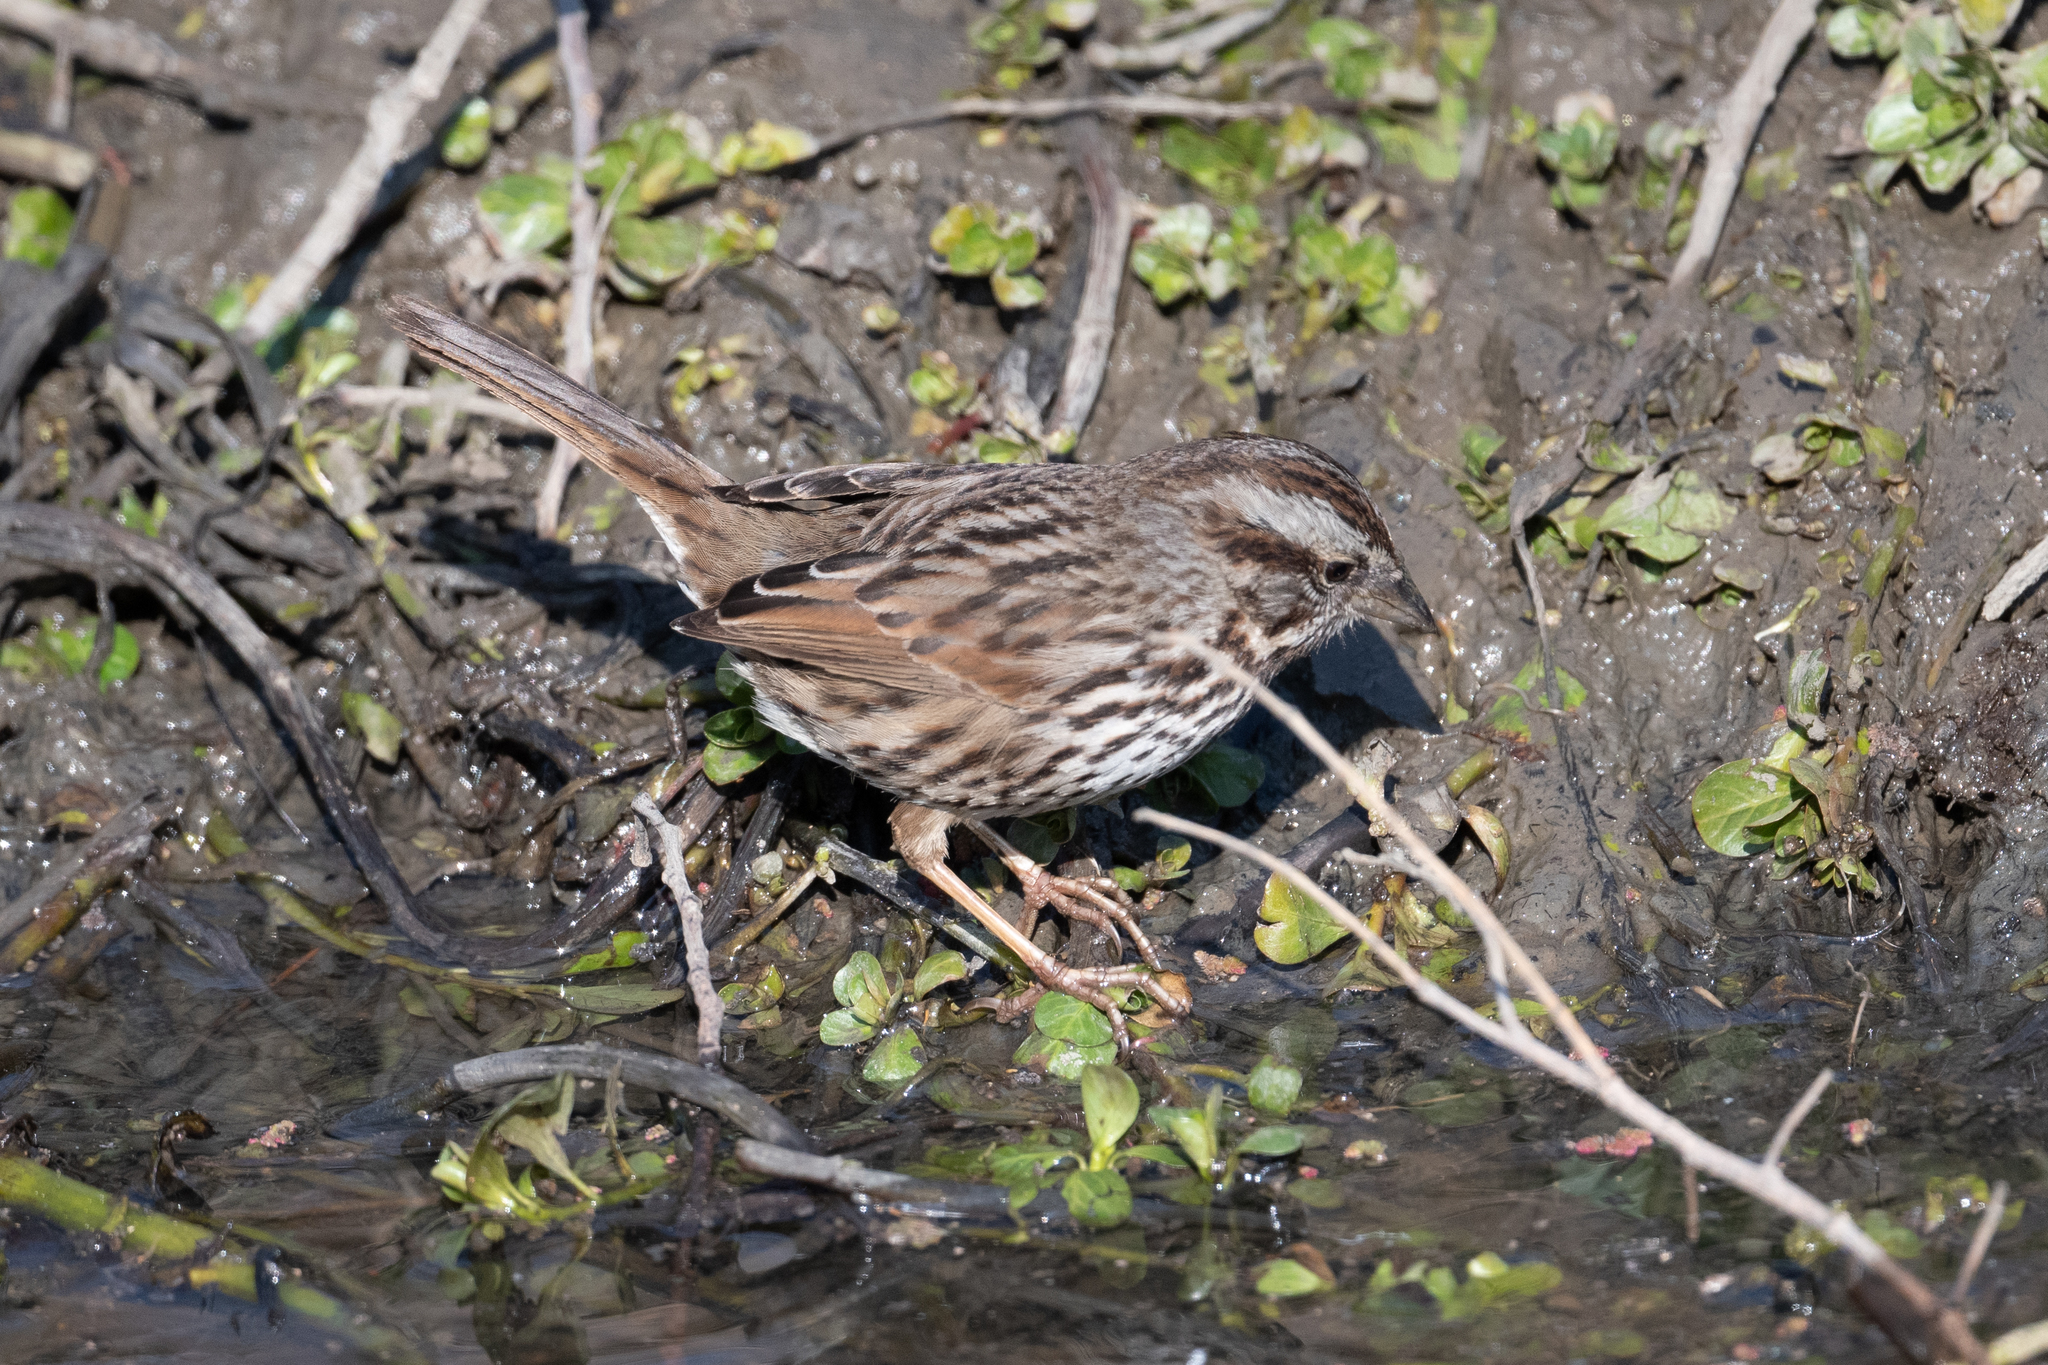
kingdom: Animalia
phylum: Chordata
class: Aves
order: Passeriformes
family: Passerellidae
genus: Melospiza
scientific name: Melospiza melodia
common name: Song sparrow
